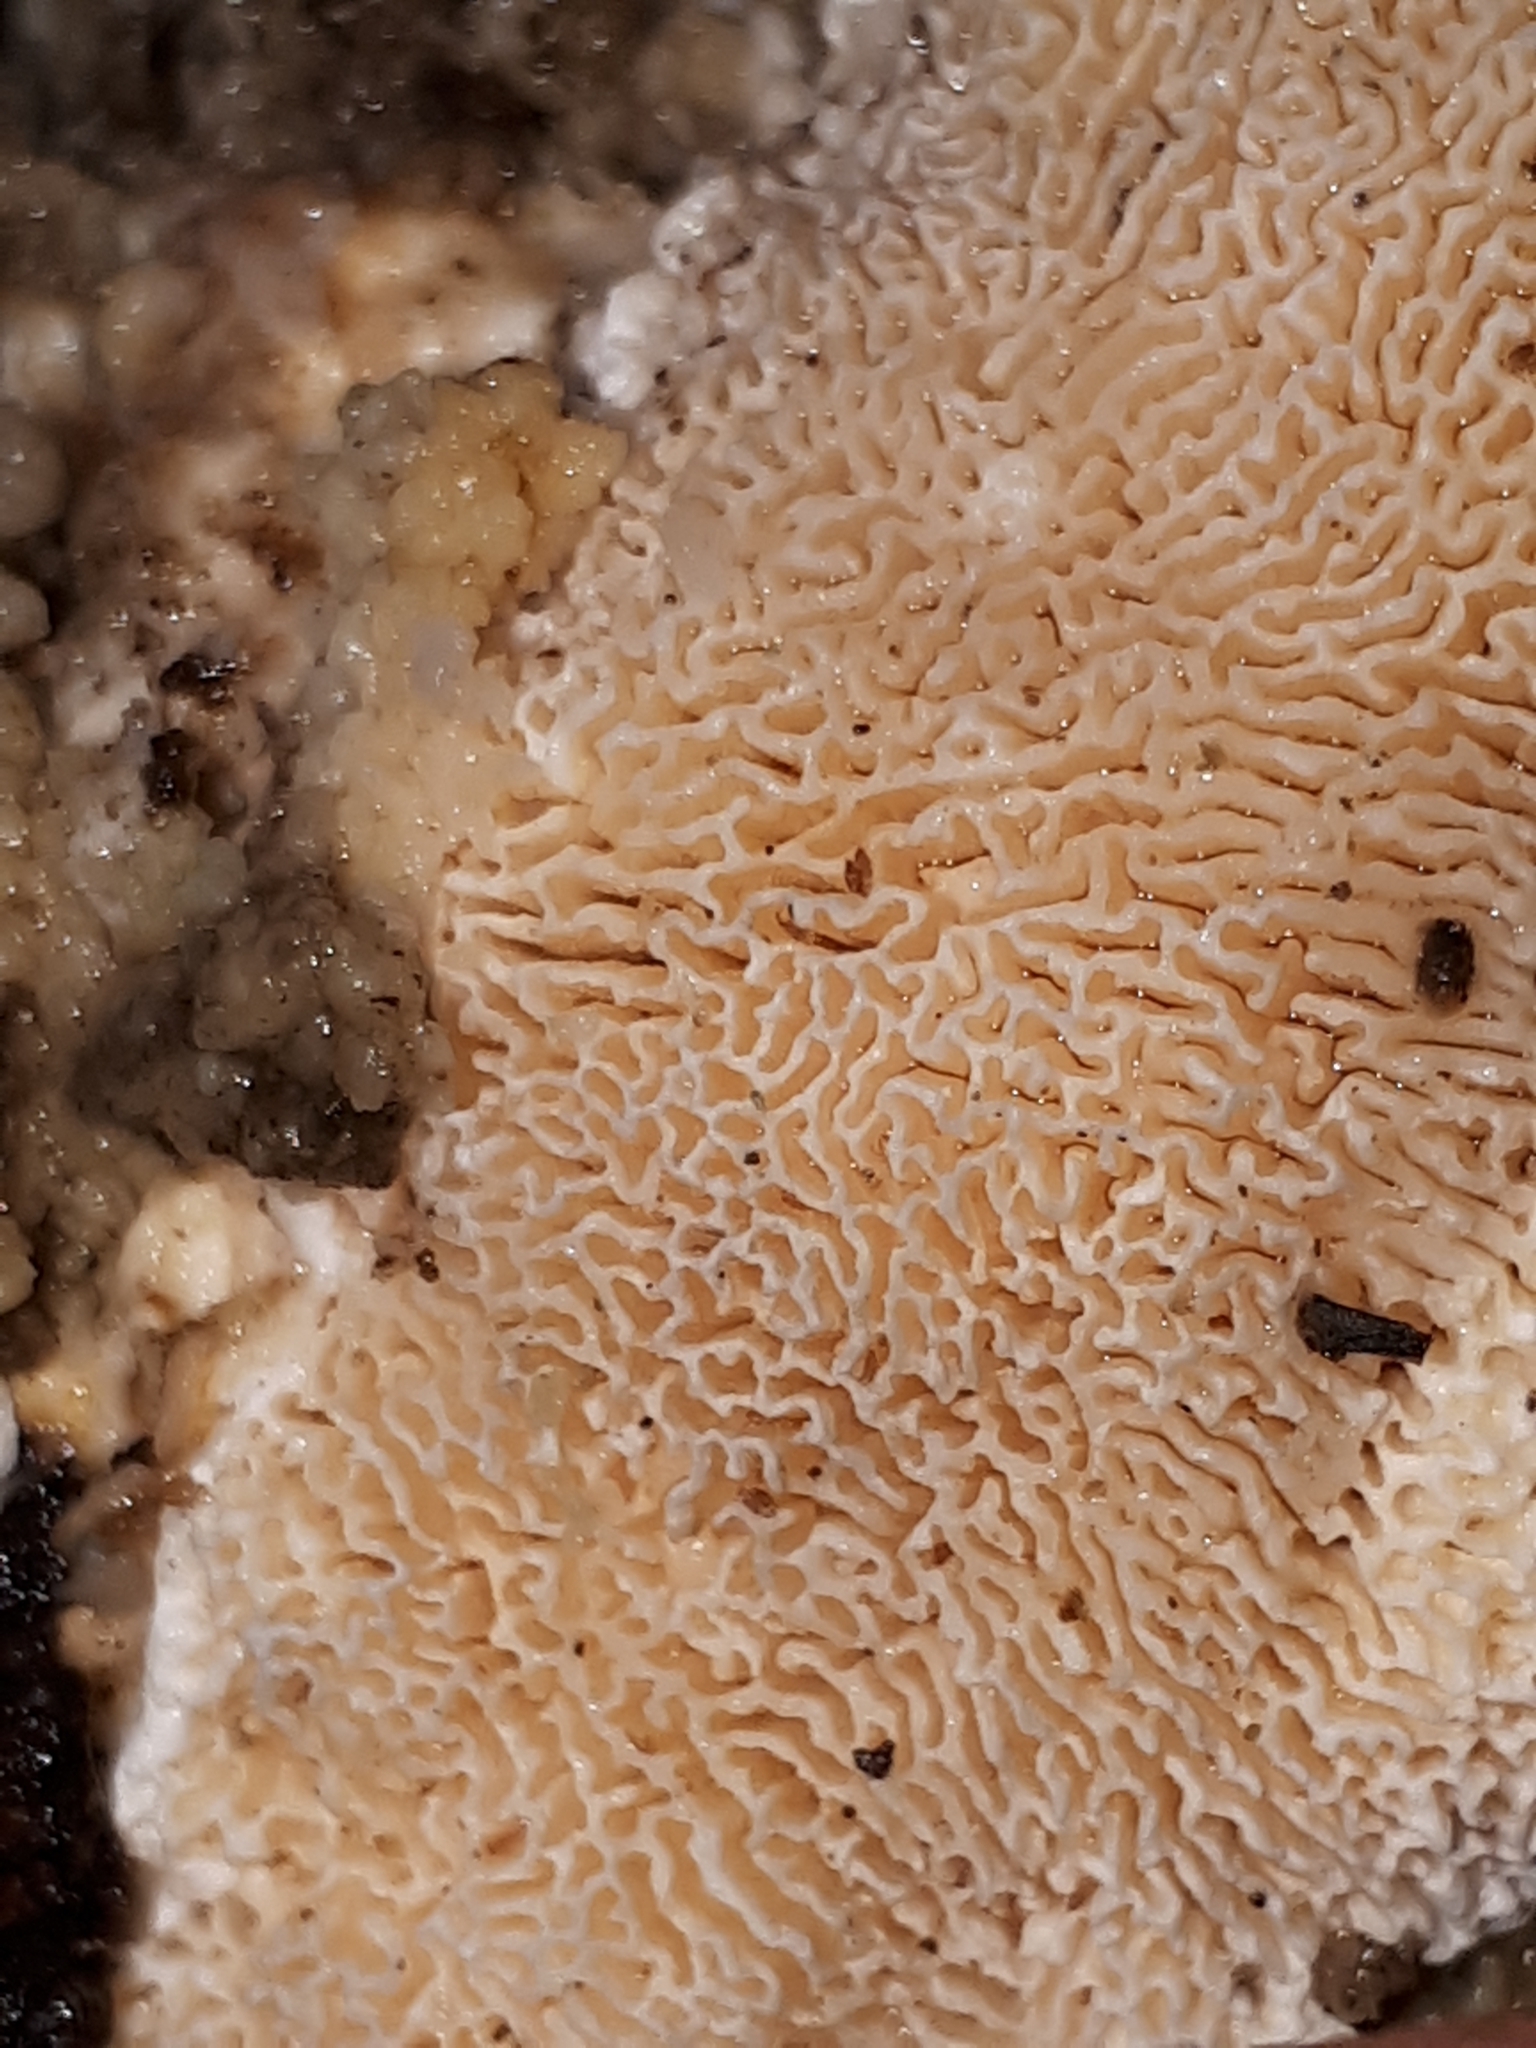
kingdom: Fungi
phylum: Basidiomycota
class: Agaricomycetes
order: Polyporales
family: Polyporaceae
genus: Trametes
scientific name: Trametes gibbosa
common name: Lumpy bracket
